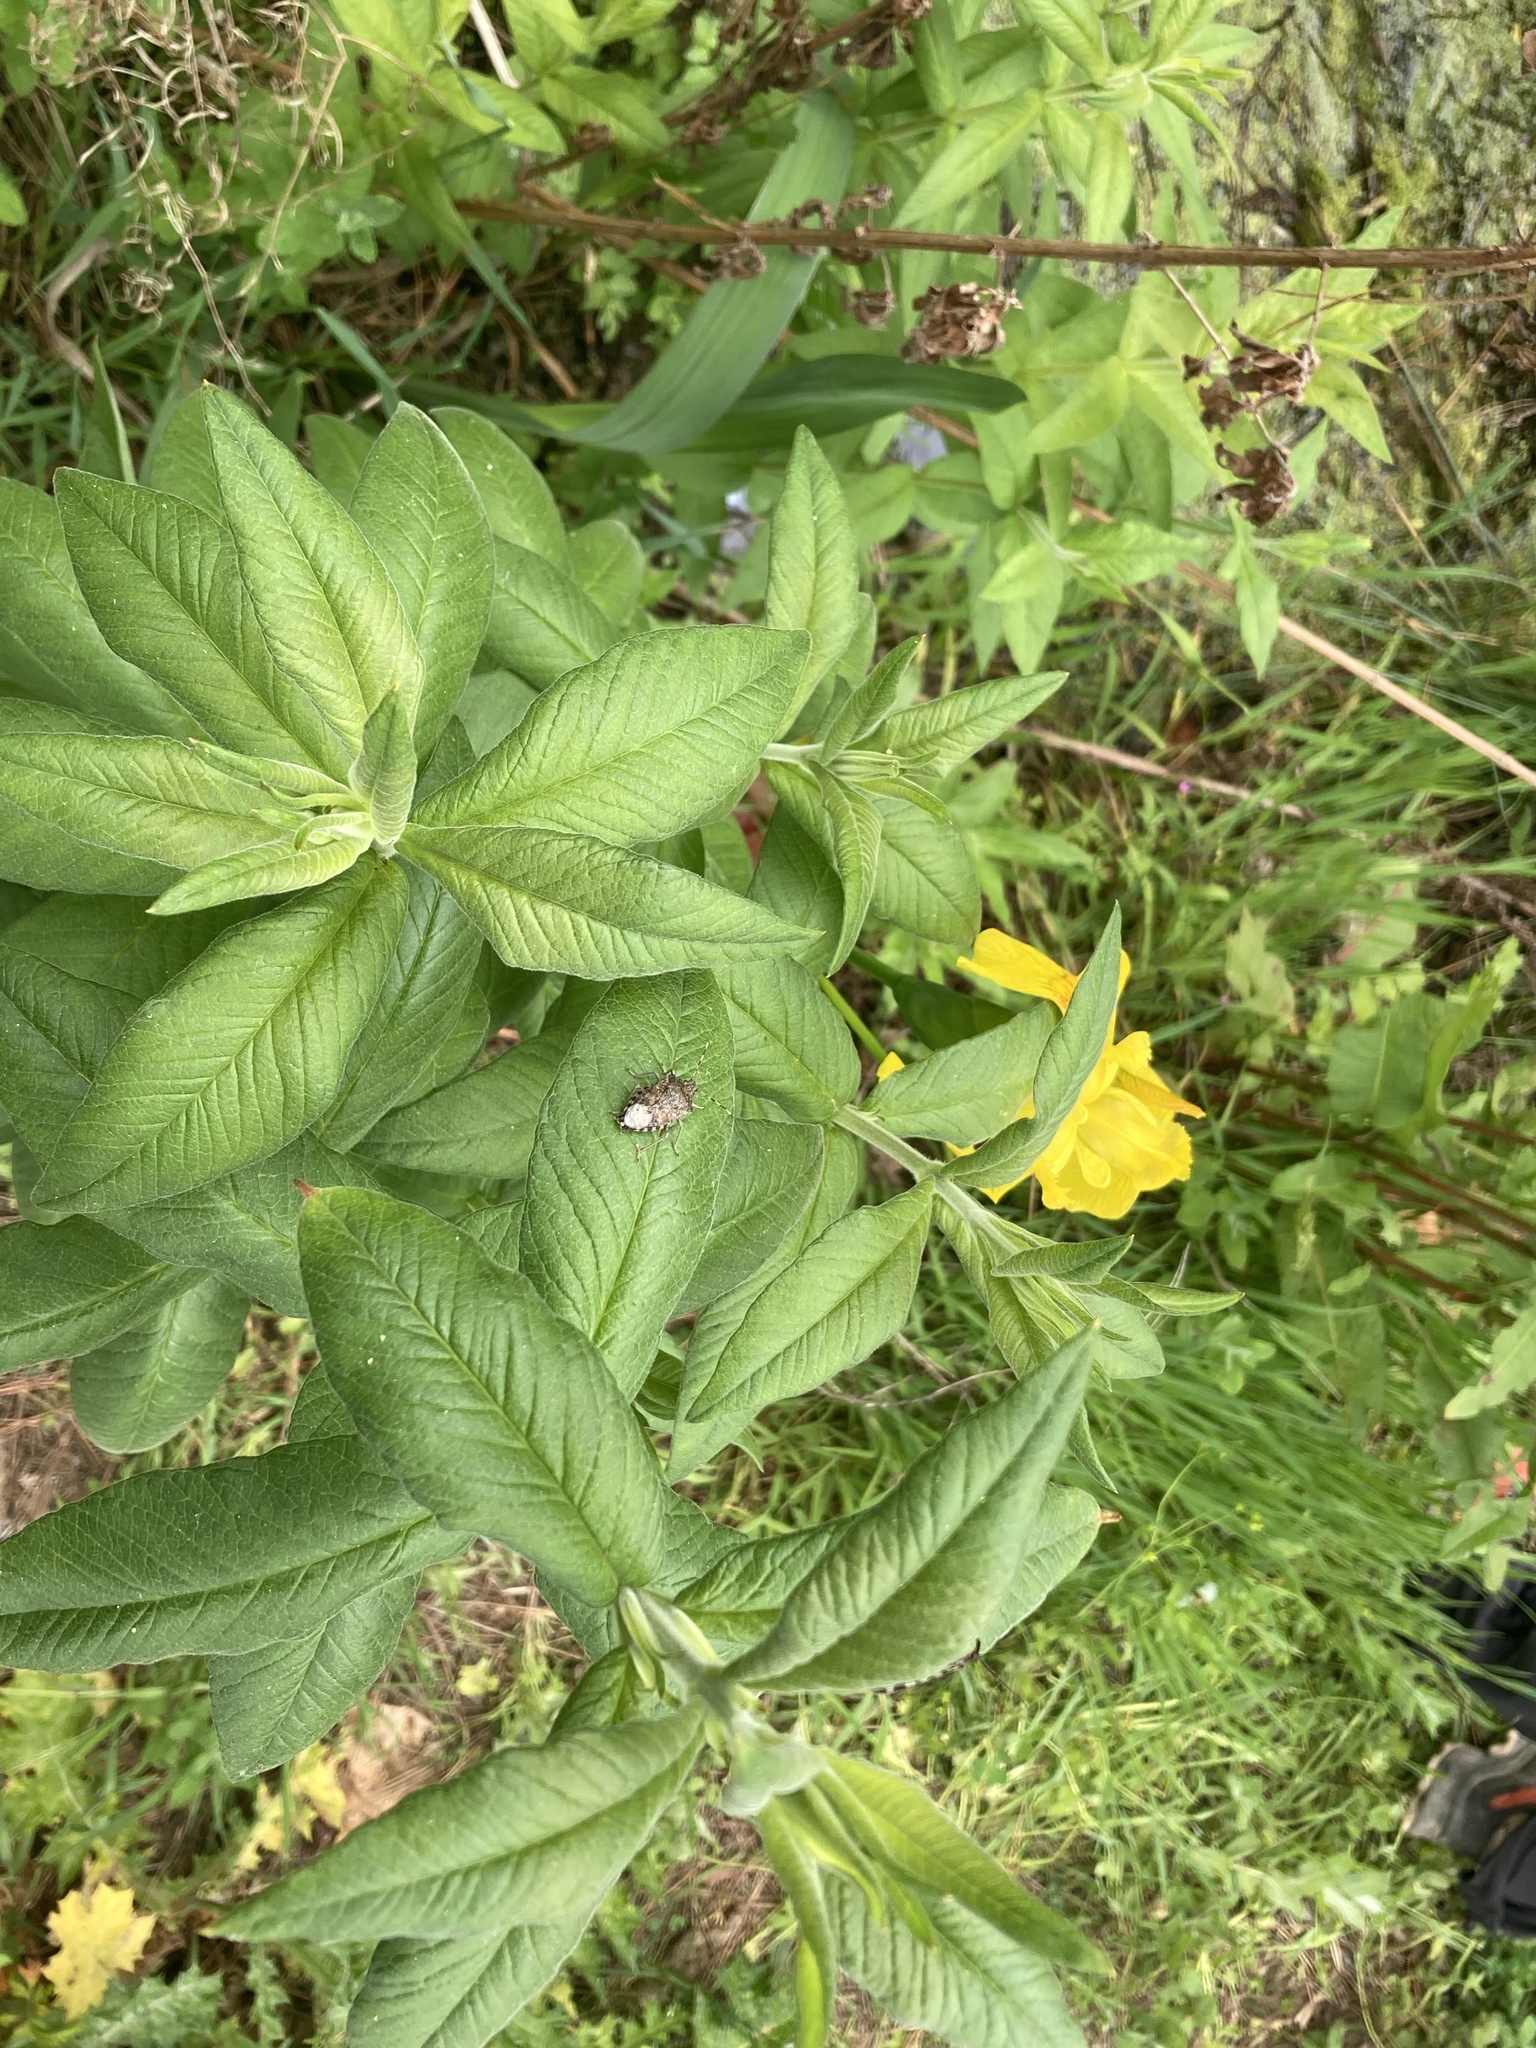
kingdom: Animalia
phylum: Arthropoda
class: Insecta
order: Hemiptera
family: Pentatomidae
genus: Rhaphigaster
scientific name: Rhaphigaster nebulosa
